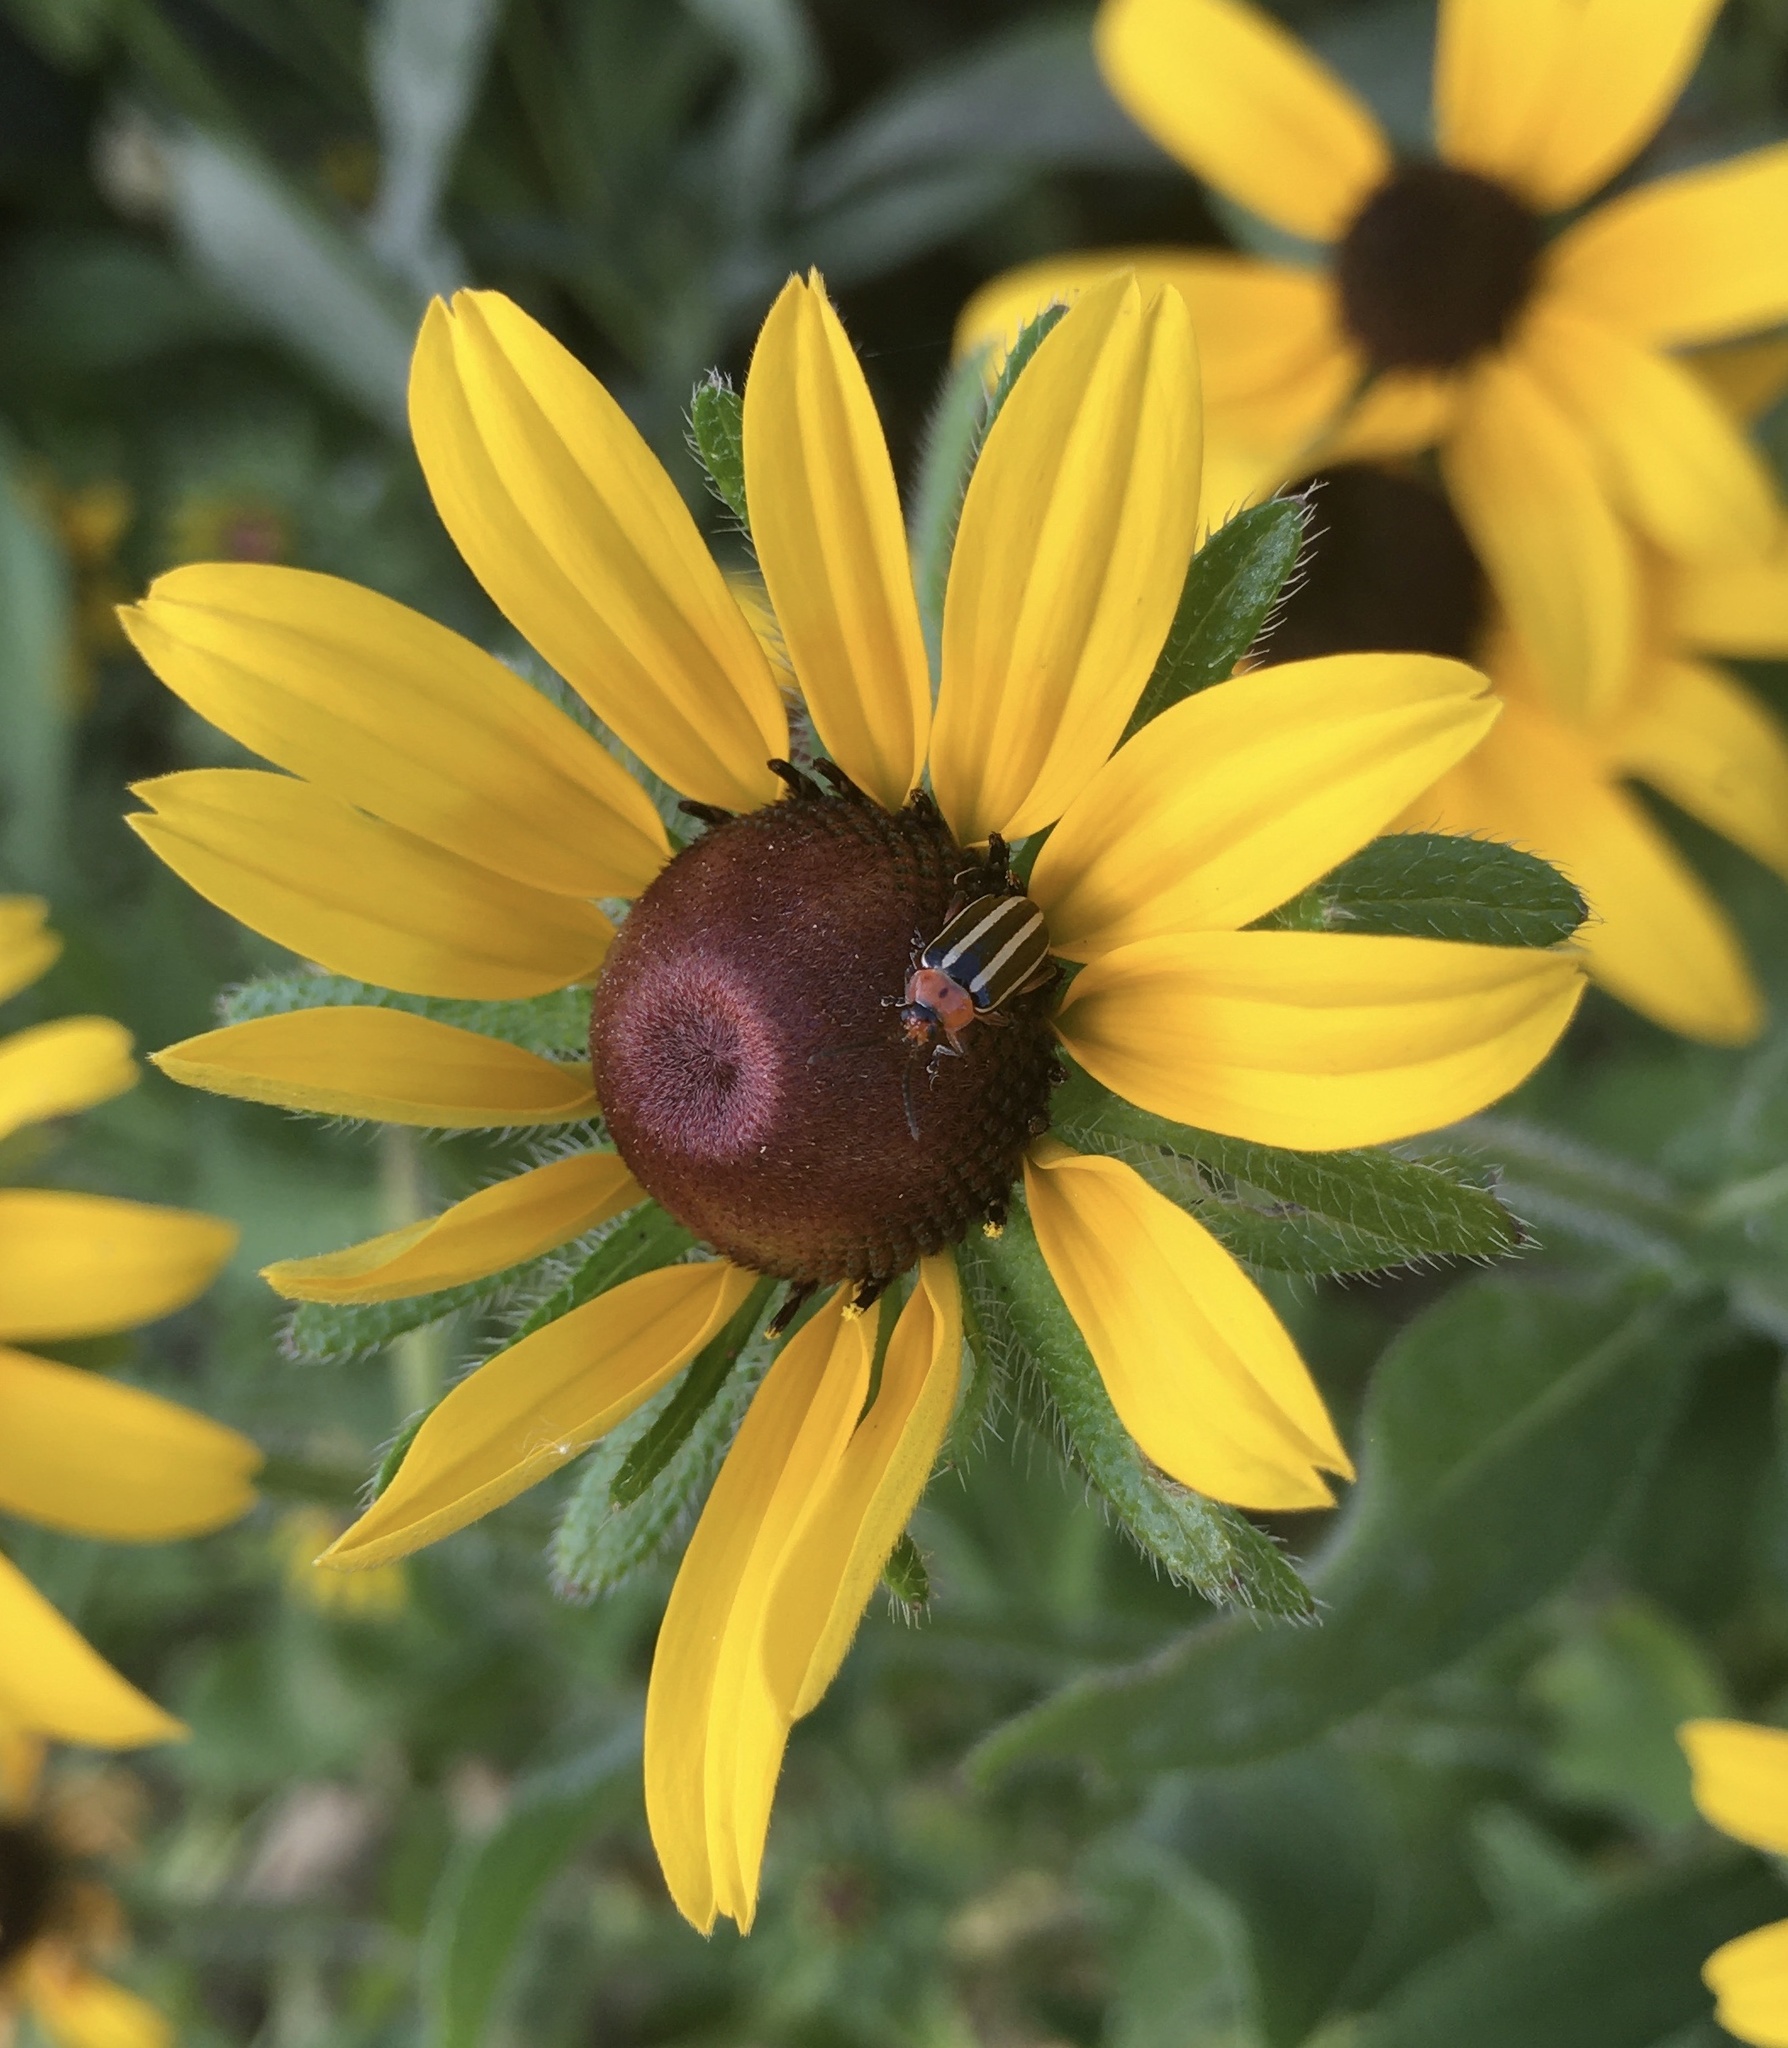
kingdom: Animalia
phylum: Arthropoda
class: Insecta
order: Coleoptera
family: Chrysomelidae
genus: Disonycha
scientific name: Disonycha glabrata
